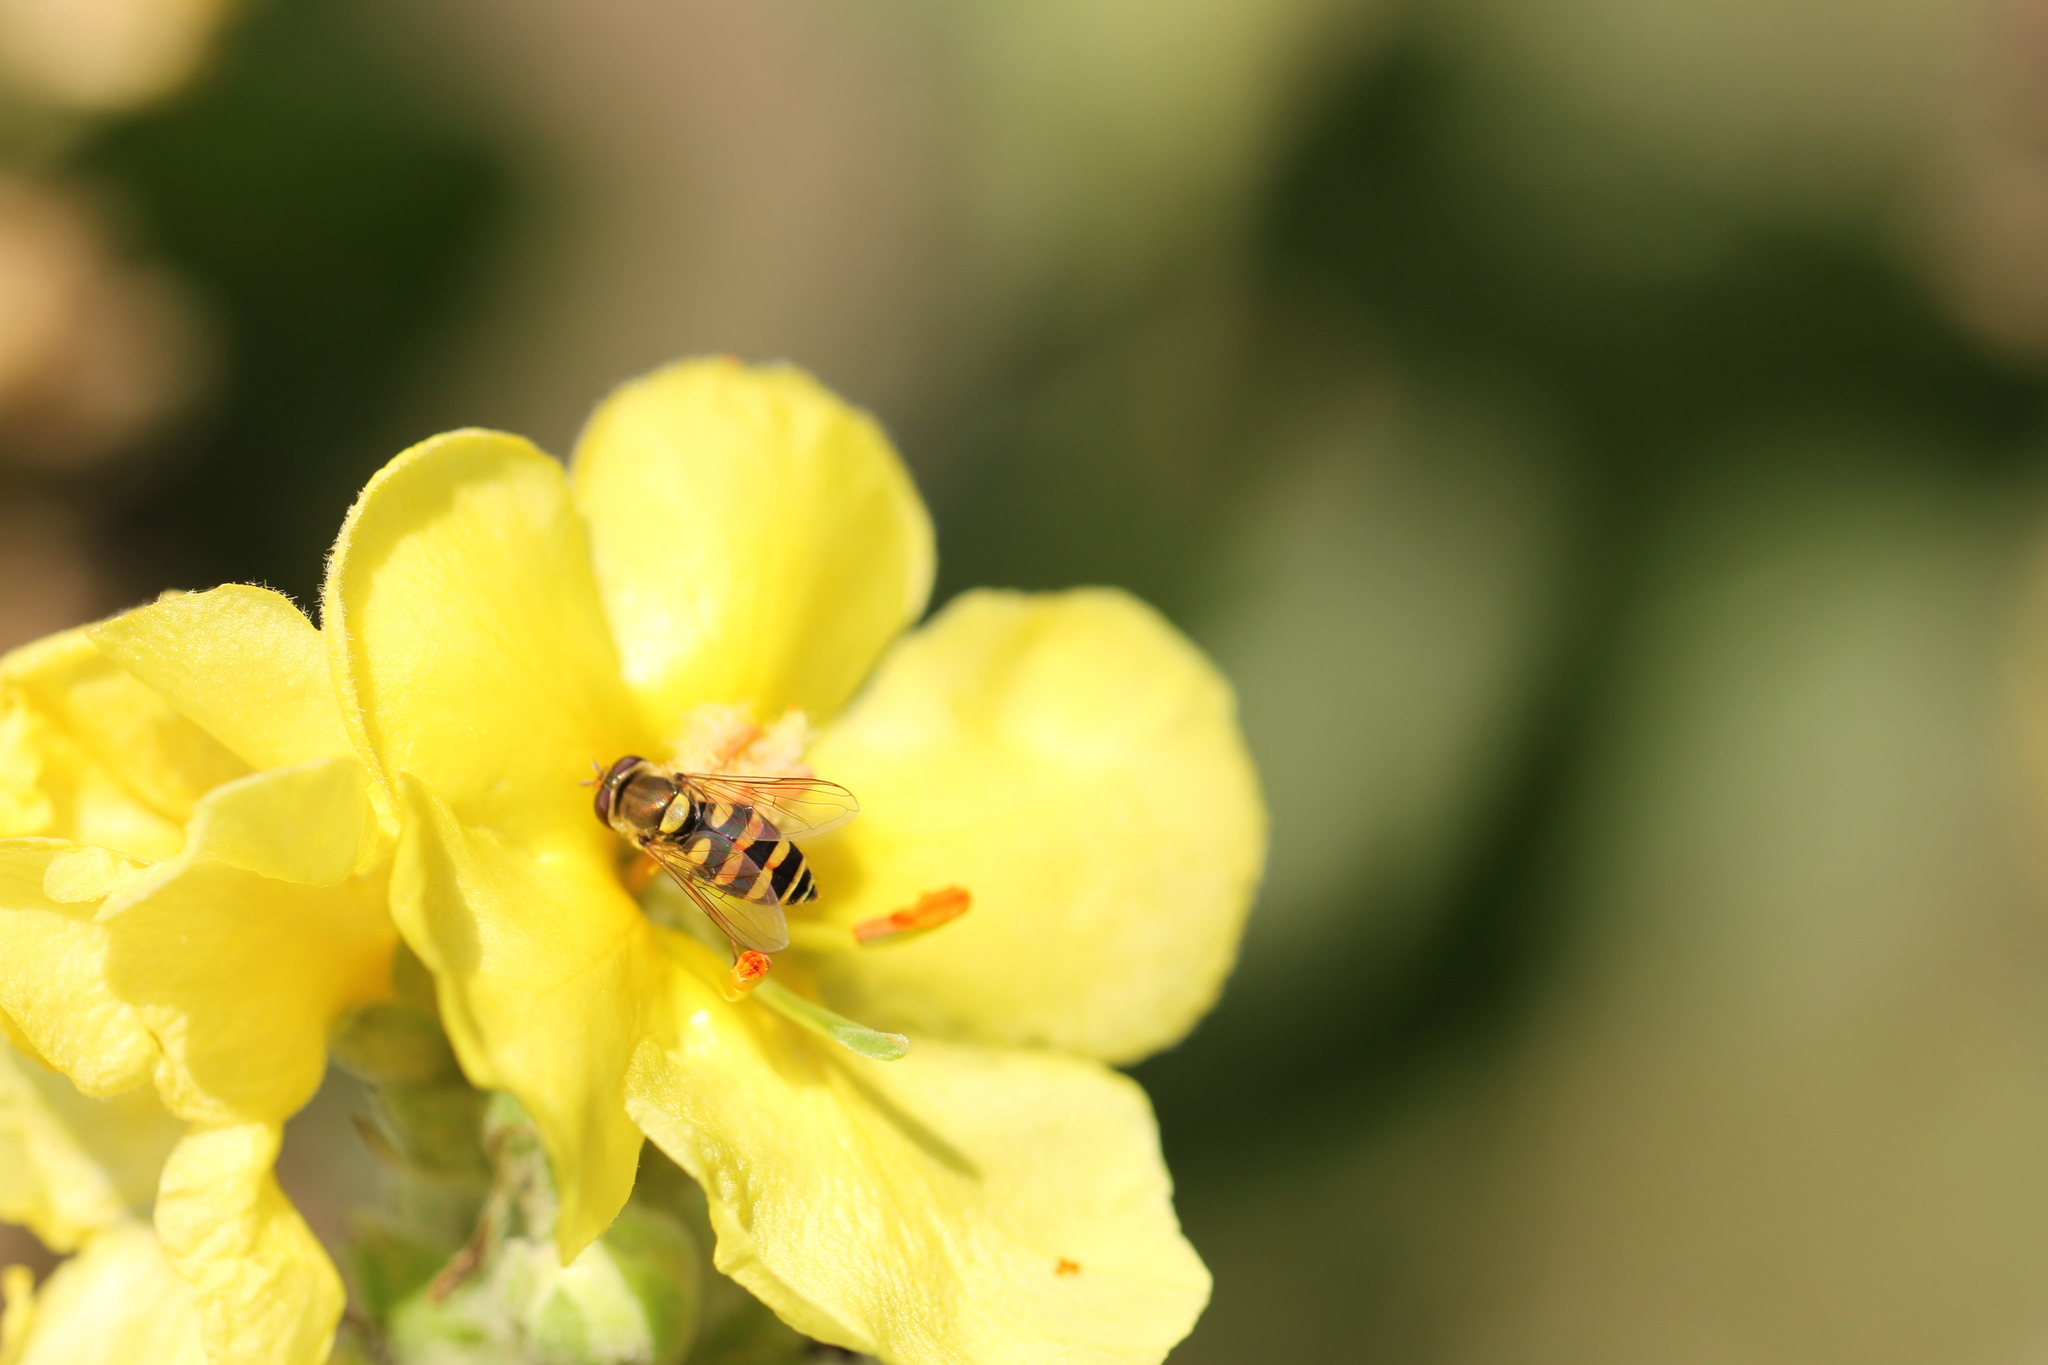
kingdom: Animalia
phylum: Arthropoda
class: Insecta
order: Diptera
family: Syrphidae
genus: Syrphus
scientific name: Syrphus
